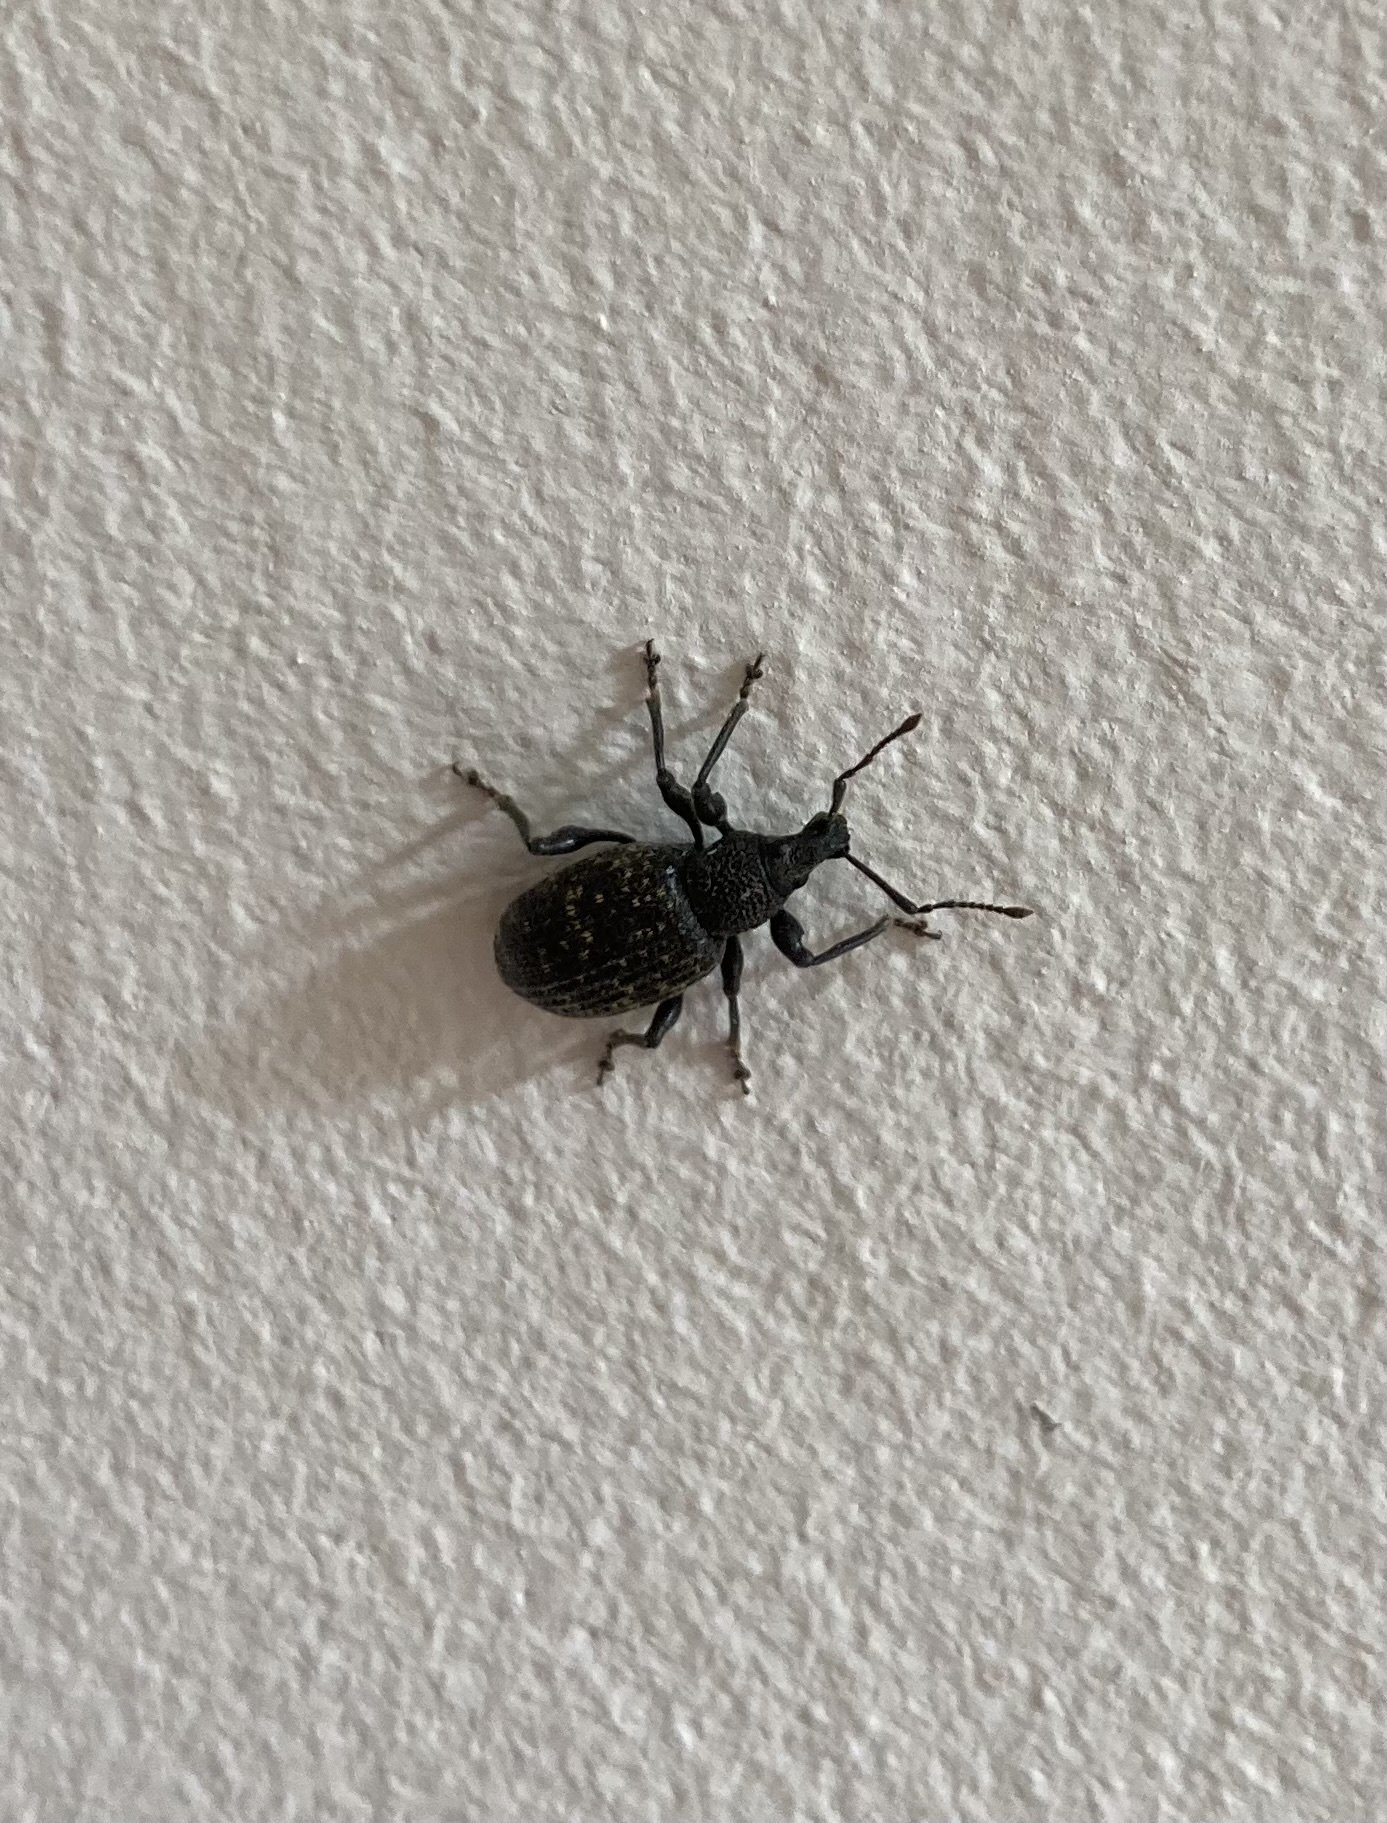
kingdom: Animalia
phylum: Arthropoda
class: Insecta
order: Coleoptera
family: Curculionidae
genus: Otiorhynchus
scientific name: Otiorhynchus sulcatus
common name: Black vine weevil
